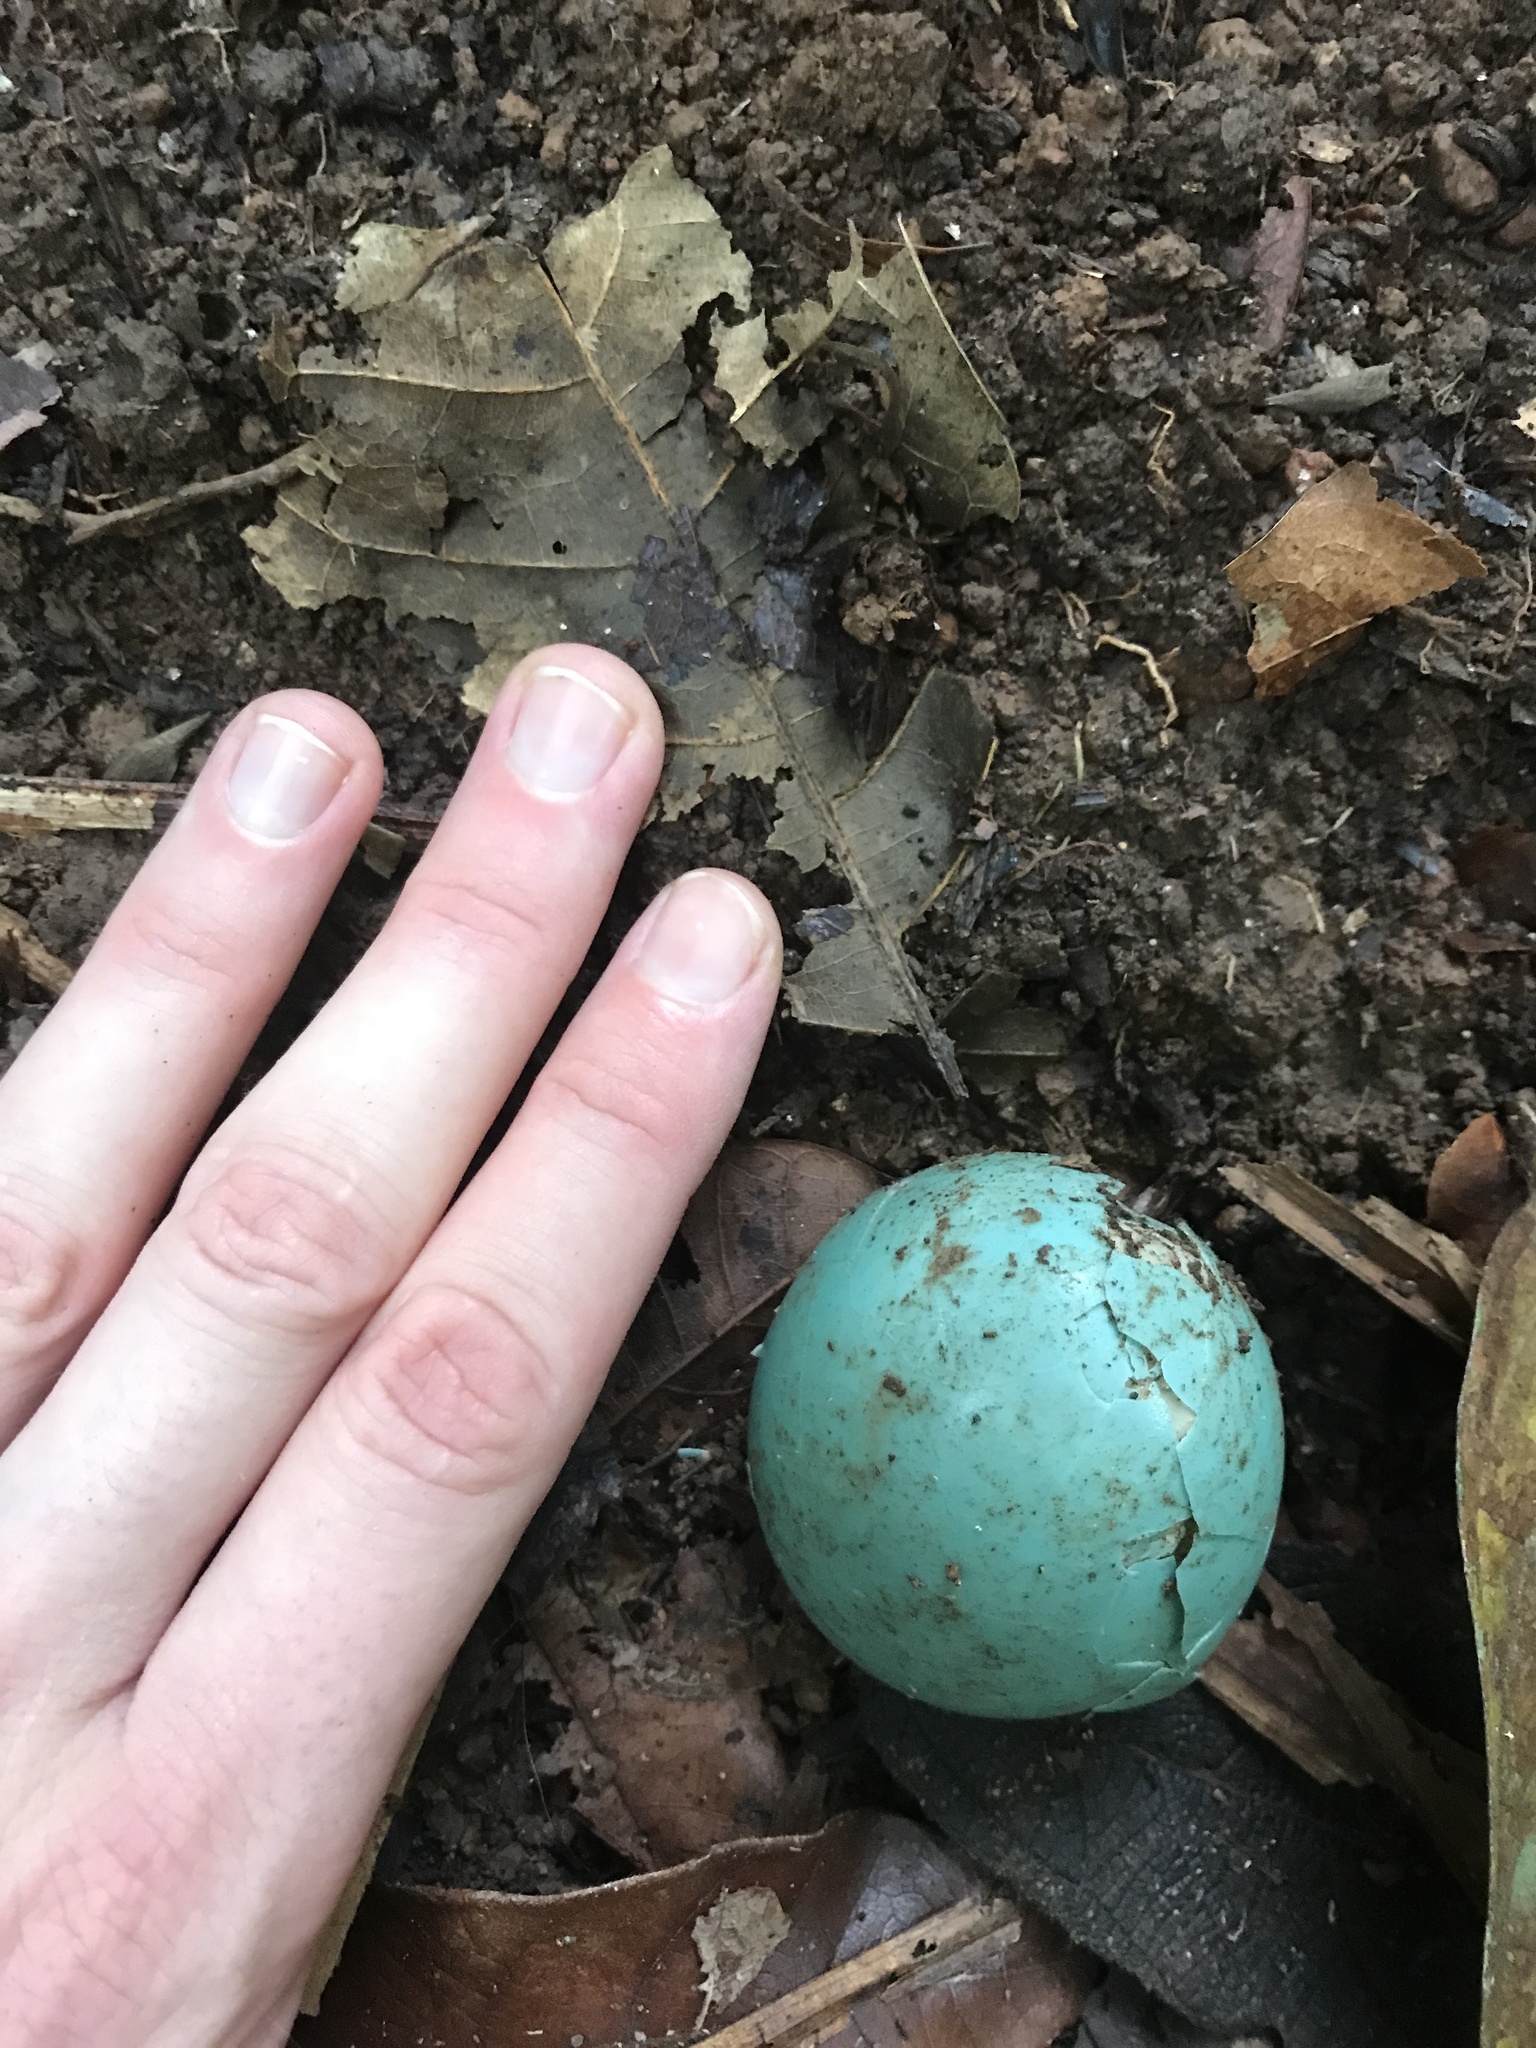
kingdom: Animalia
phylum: Chordata
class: Aves
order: Tinamiformes
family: Tinamidae
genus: Tinamus
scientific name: Tinamus major
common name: Great tinamou
